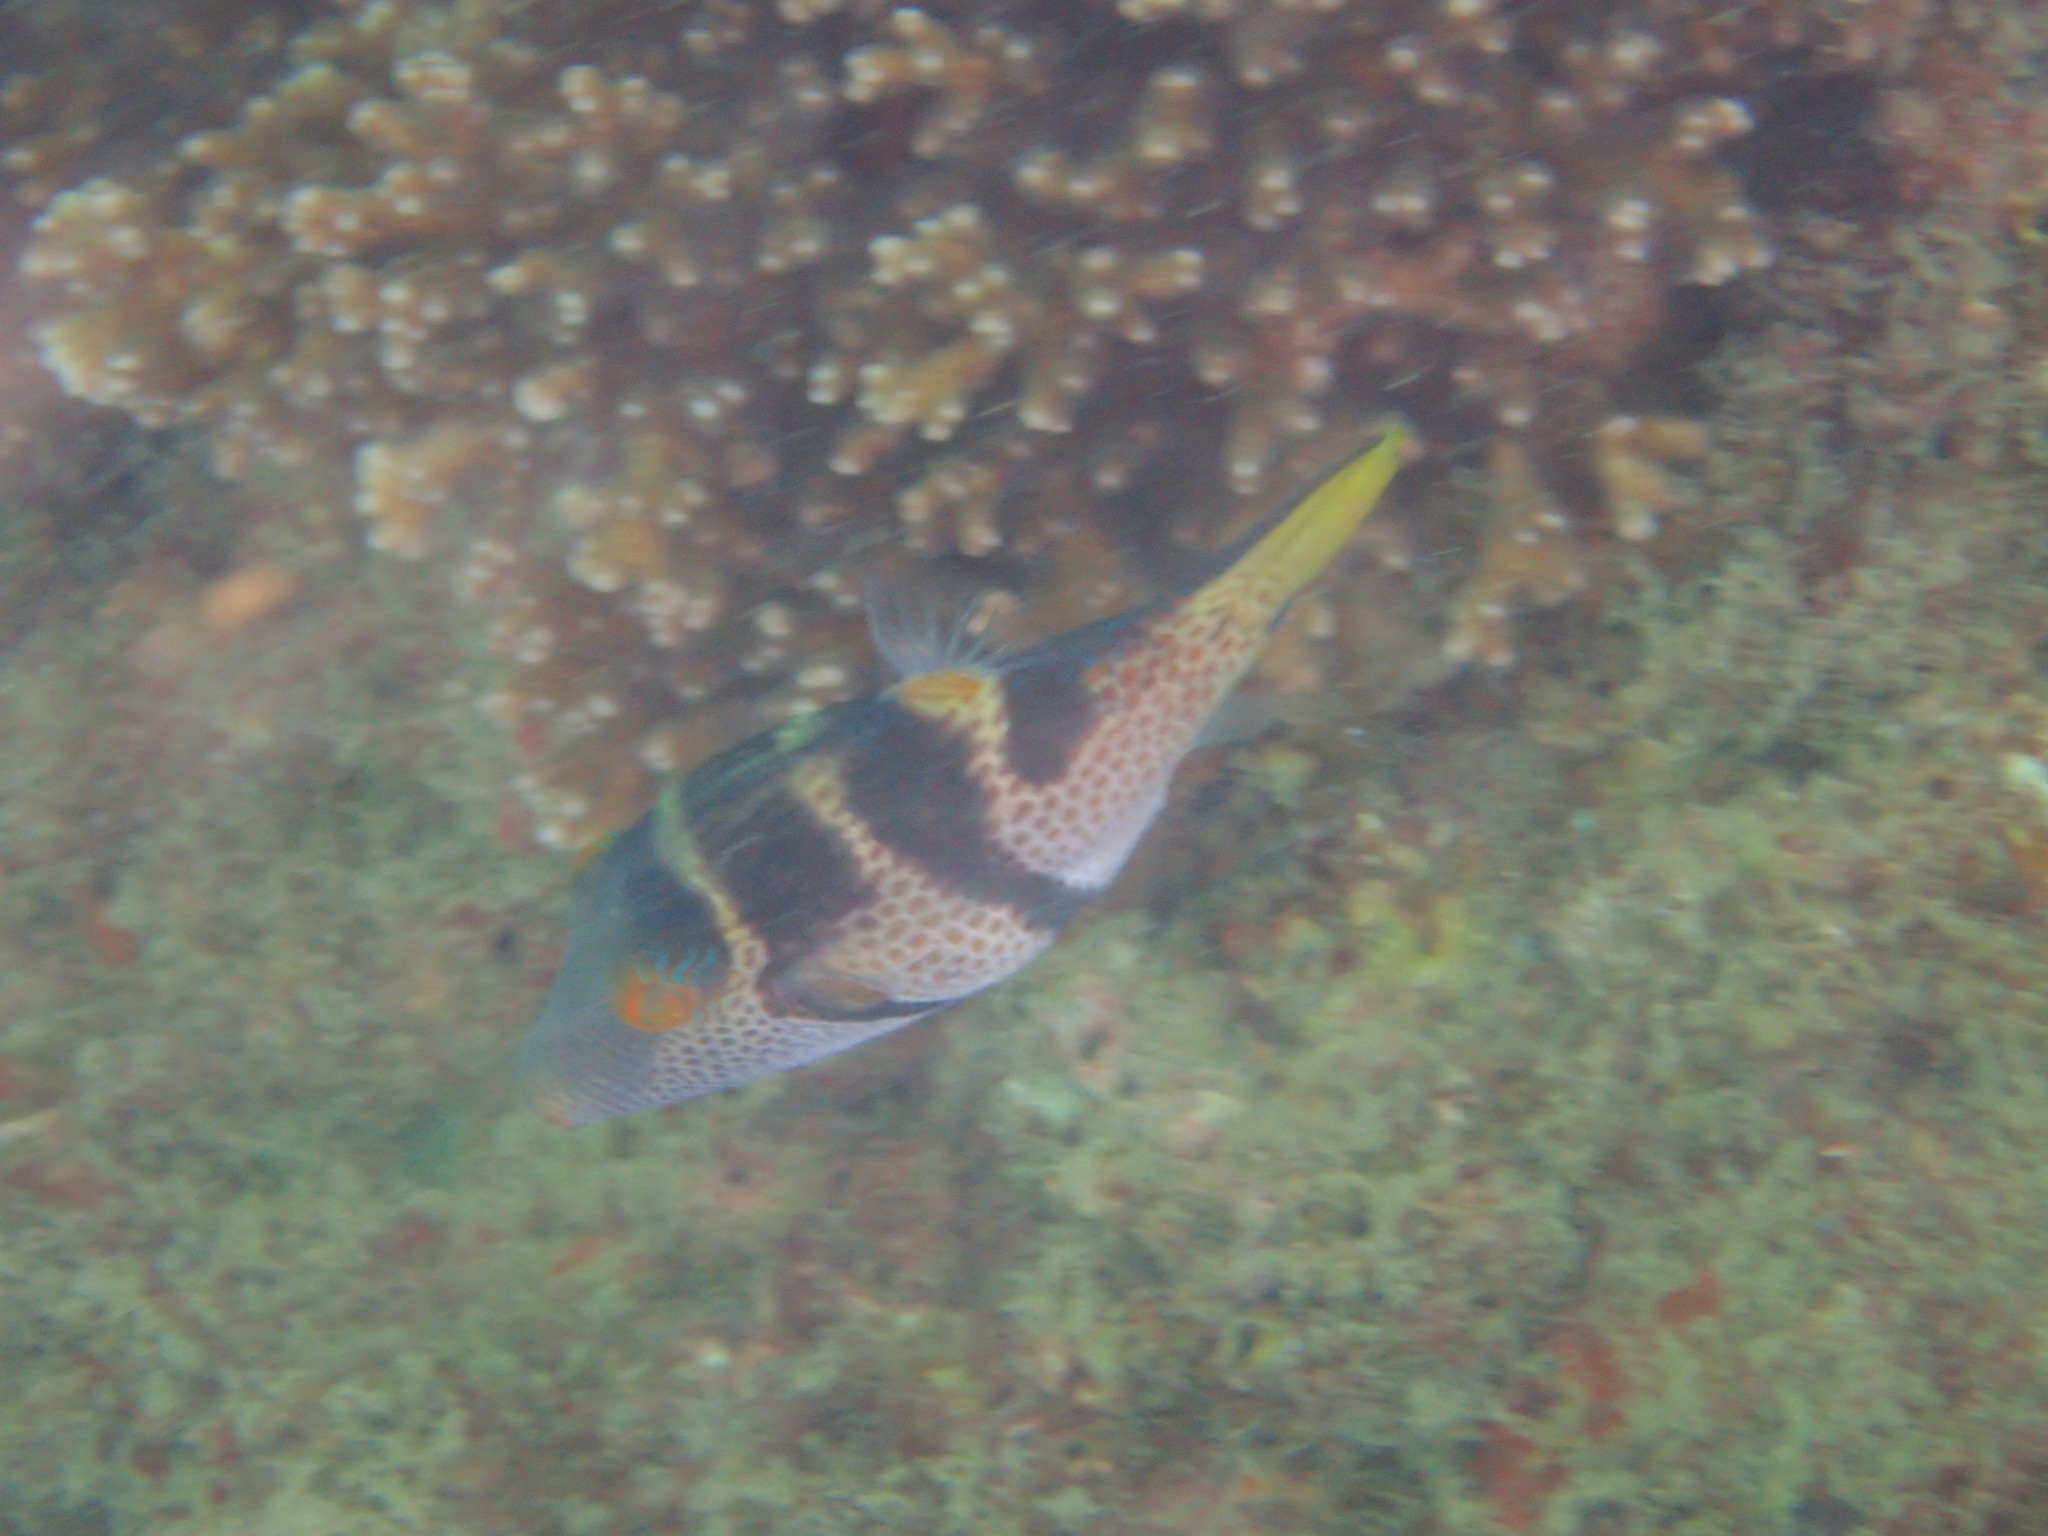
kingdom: Animalia
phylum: Chordata
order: Tetraodontiformes
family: Tetraodontidae
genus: Canthigaster
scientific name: Canthigaster valentini
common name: Banded toby
